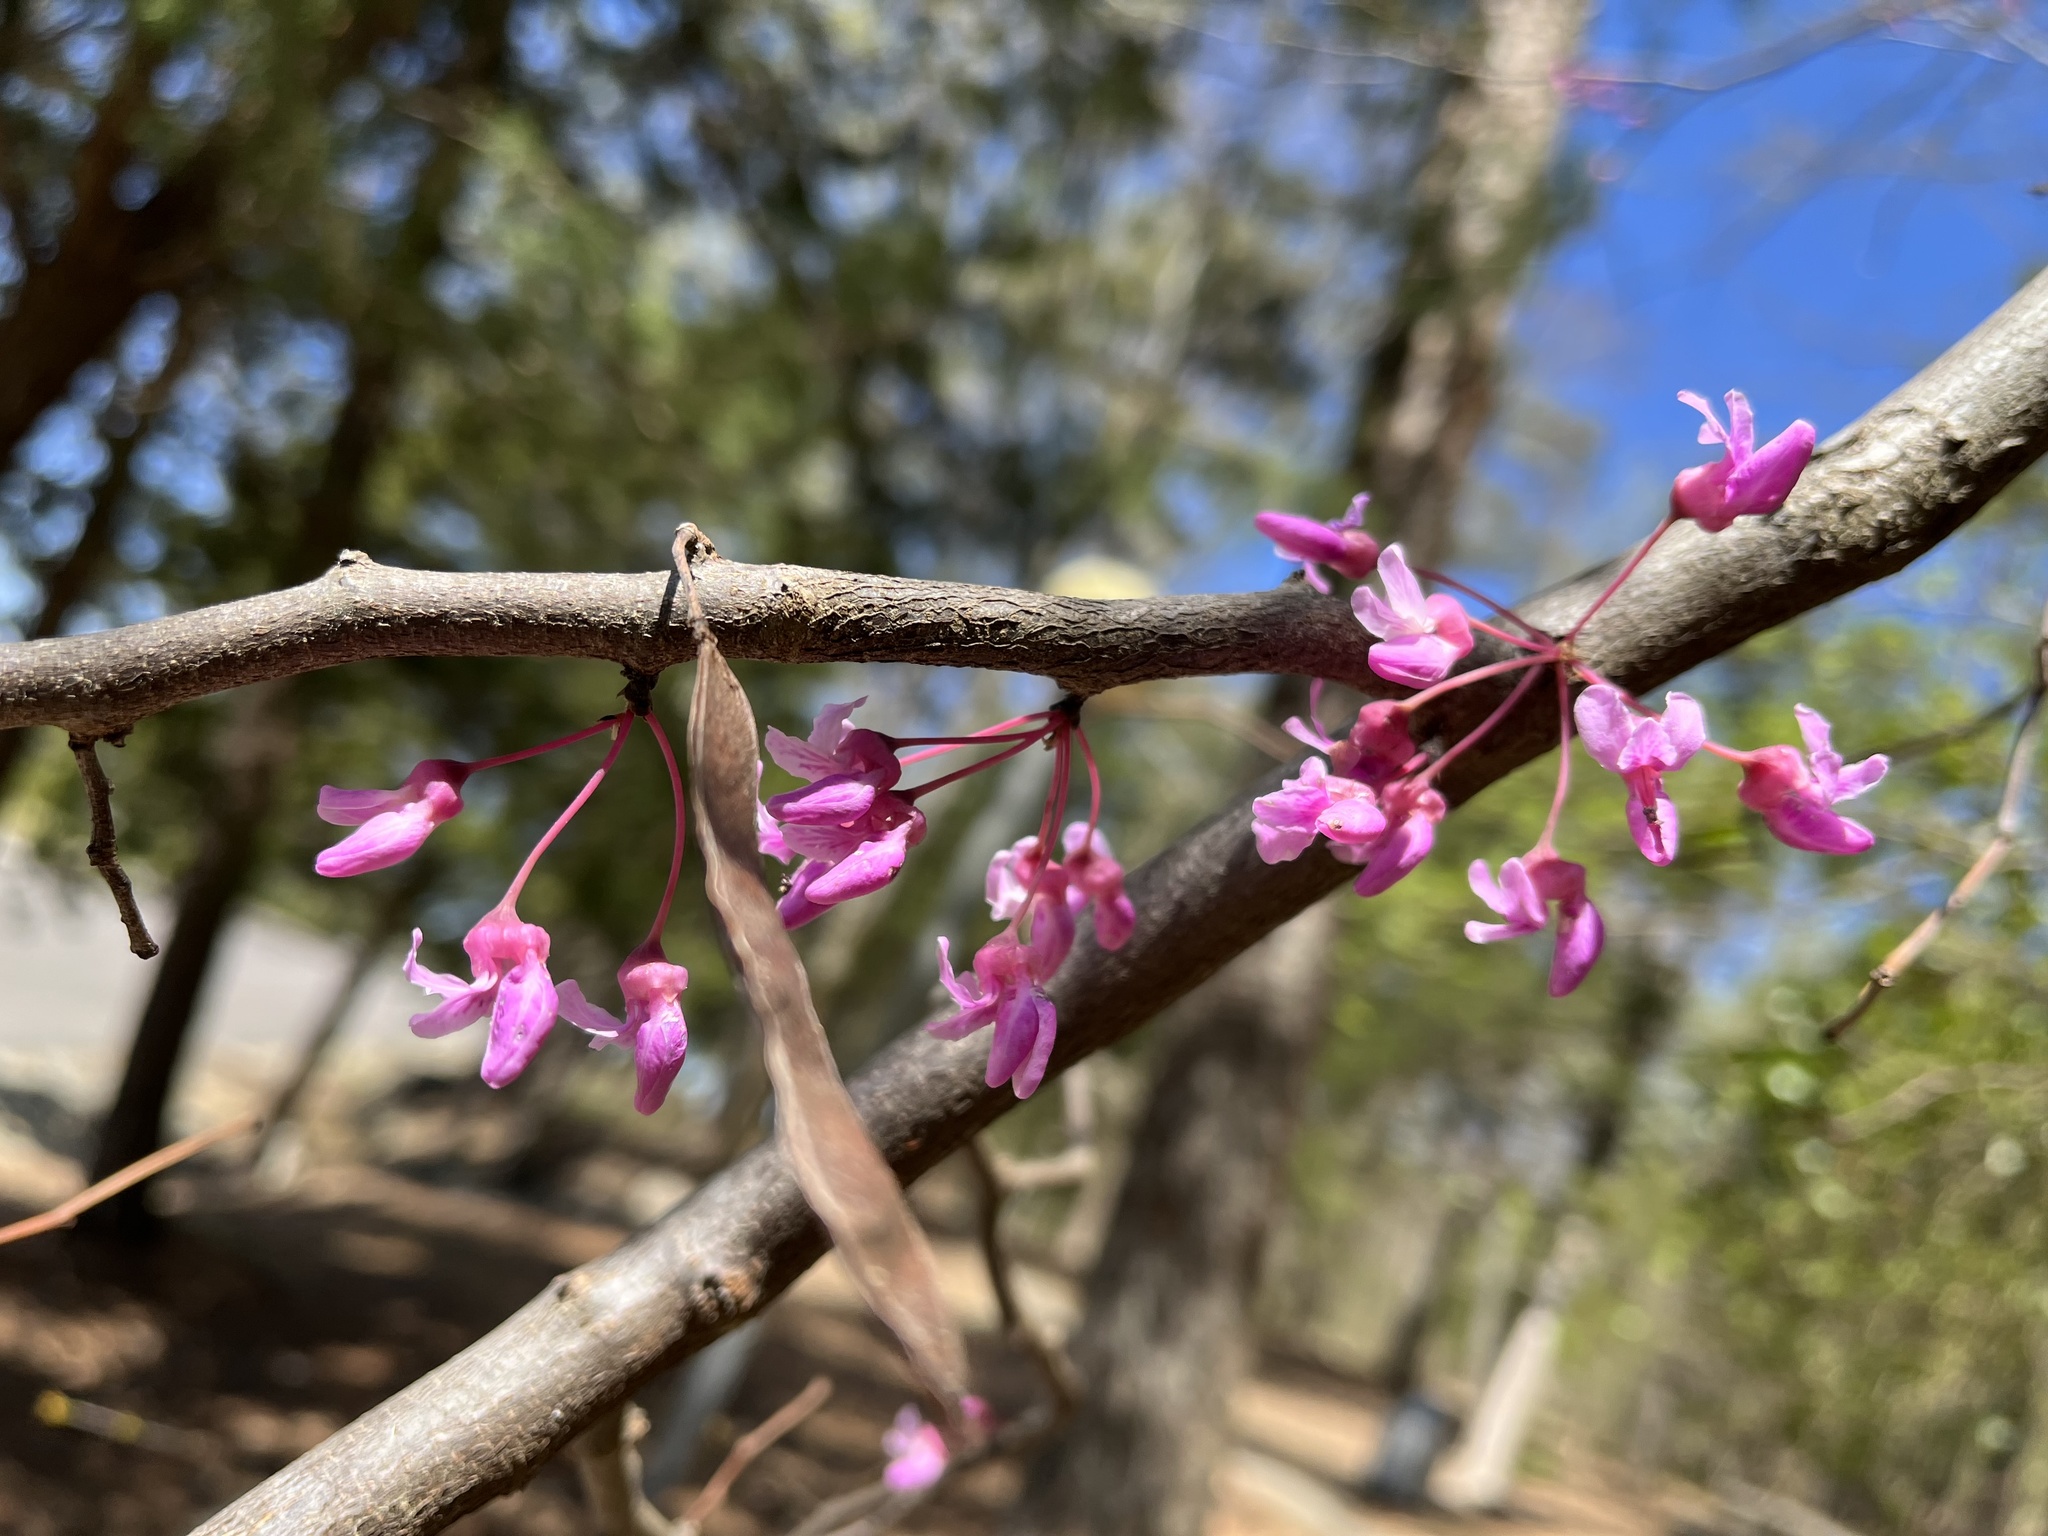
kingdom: Plantae
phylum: Tracheophyta
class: Magnoliopsida
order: Fabales
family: Fabaceae
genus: Cercis
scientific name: Cercis canadensis
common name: Eastern redbud
